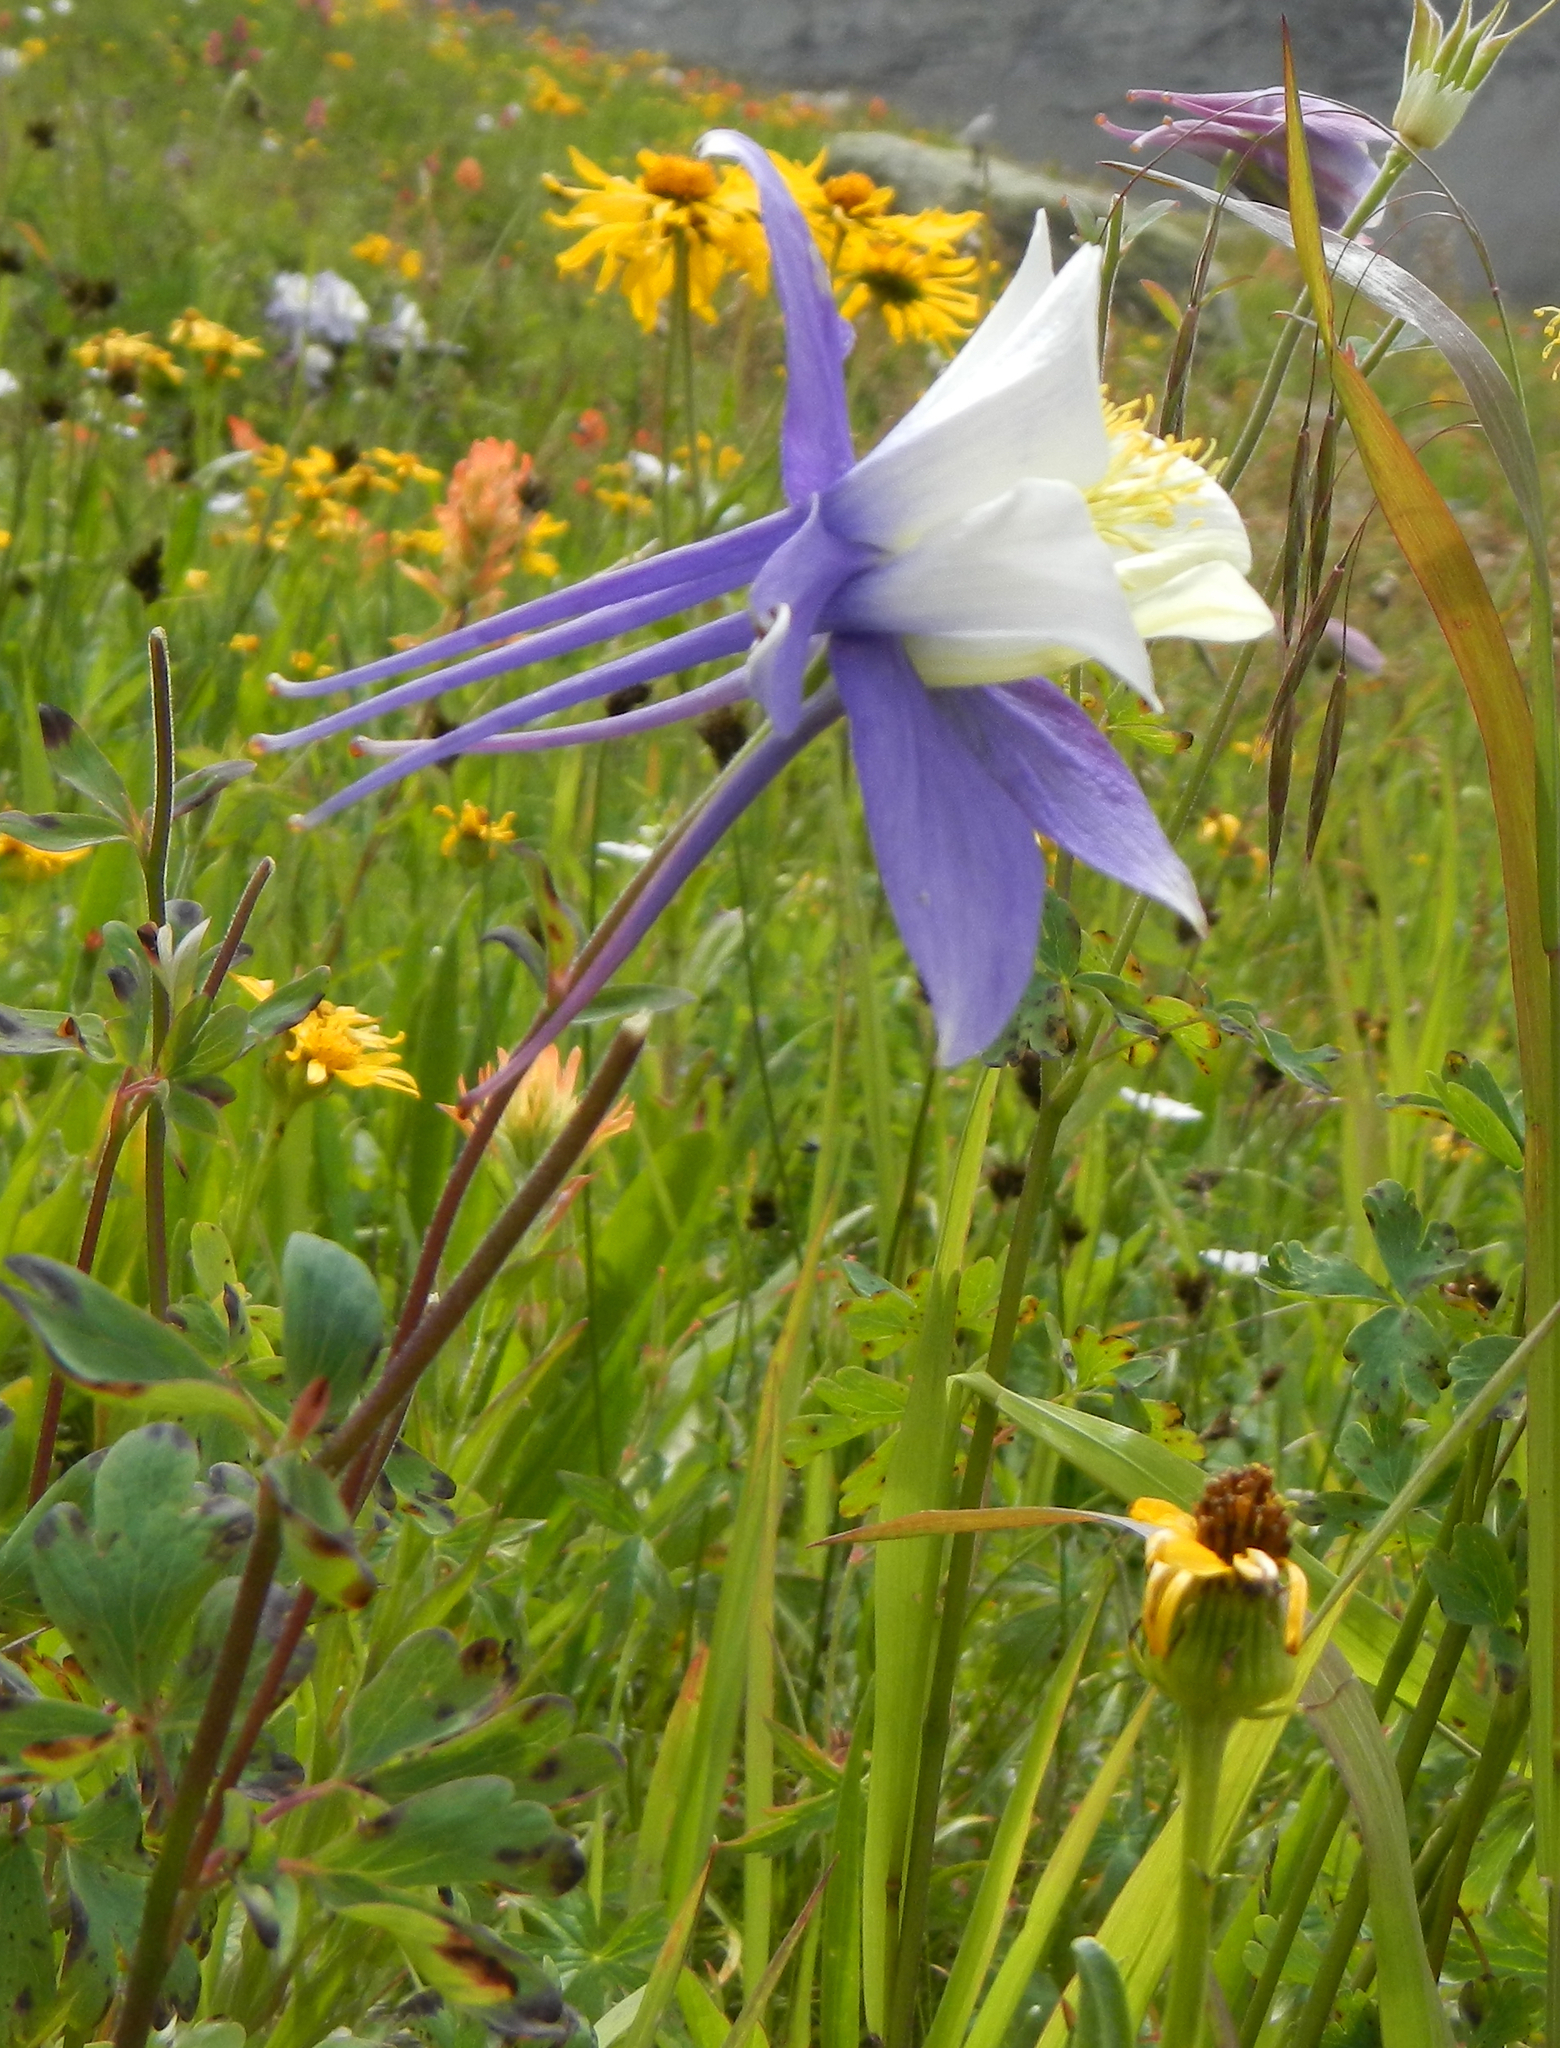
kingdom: Plantae
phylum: Tracheophyta
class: Magnoliopsida
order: Ranunculales
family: Ranunculaceae
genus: Aquilegia
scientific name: Aquilegia coerulea
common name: Rocky mountain columbine
